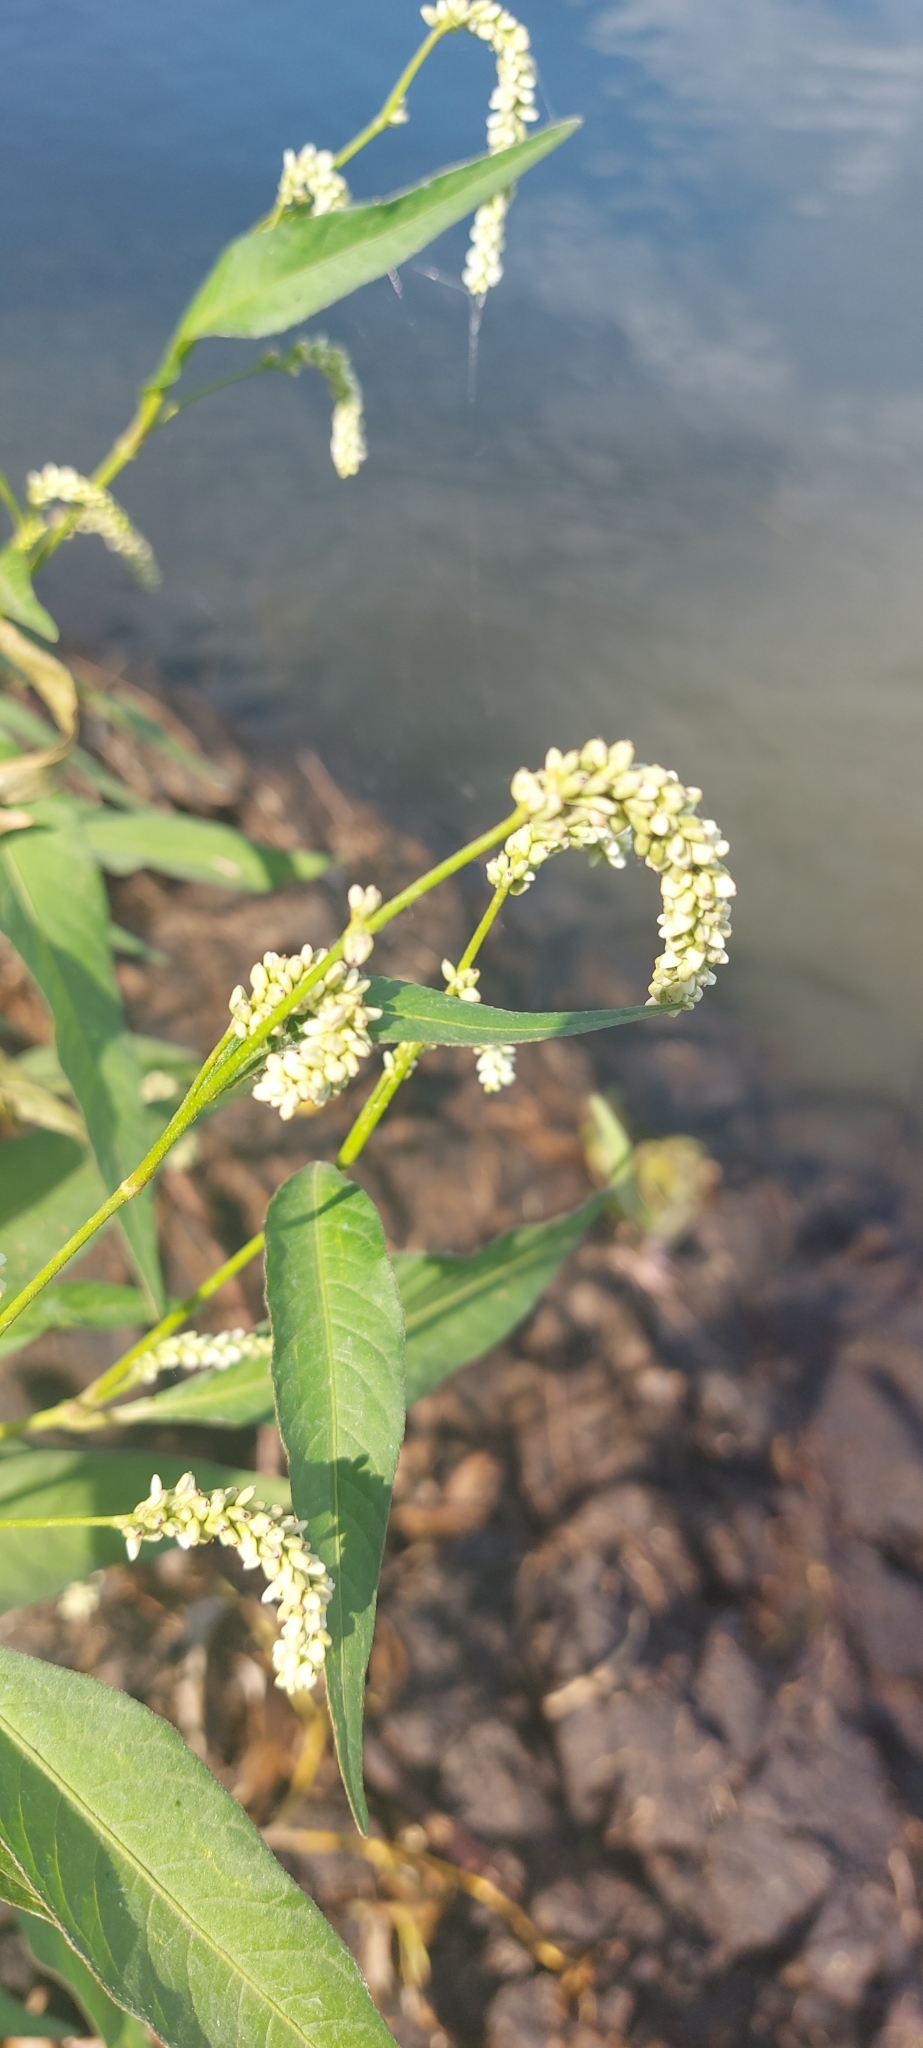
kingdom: Plantae
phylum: Tracheophyta
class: Magnoliopsida
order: Caryophyllales
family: Polygonaceae
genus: Persicaria
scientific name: Persicaria lapathifolia
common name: Curlytop knotweed
